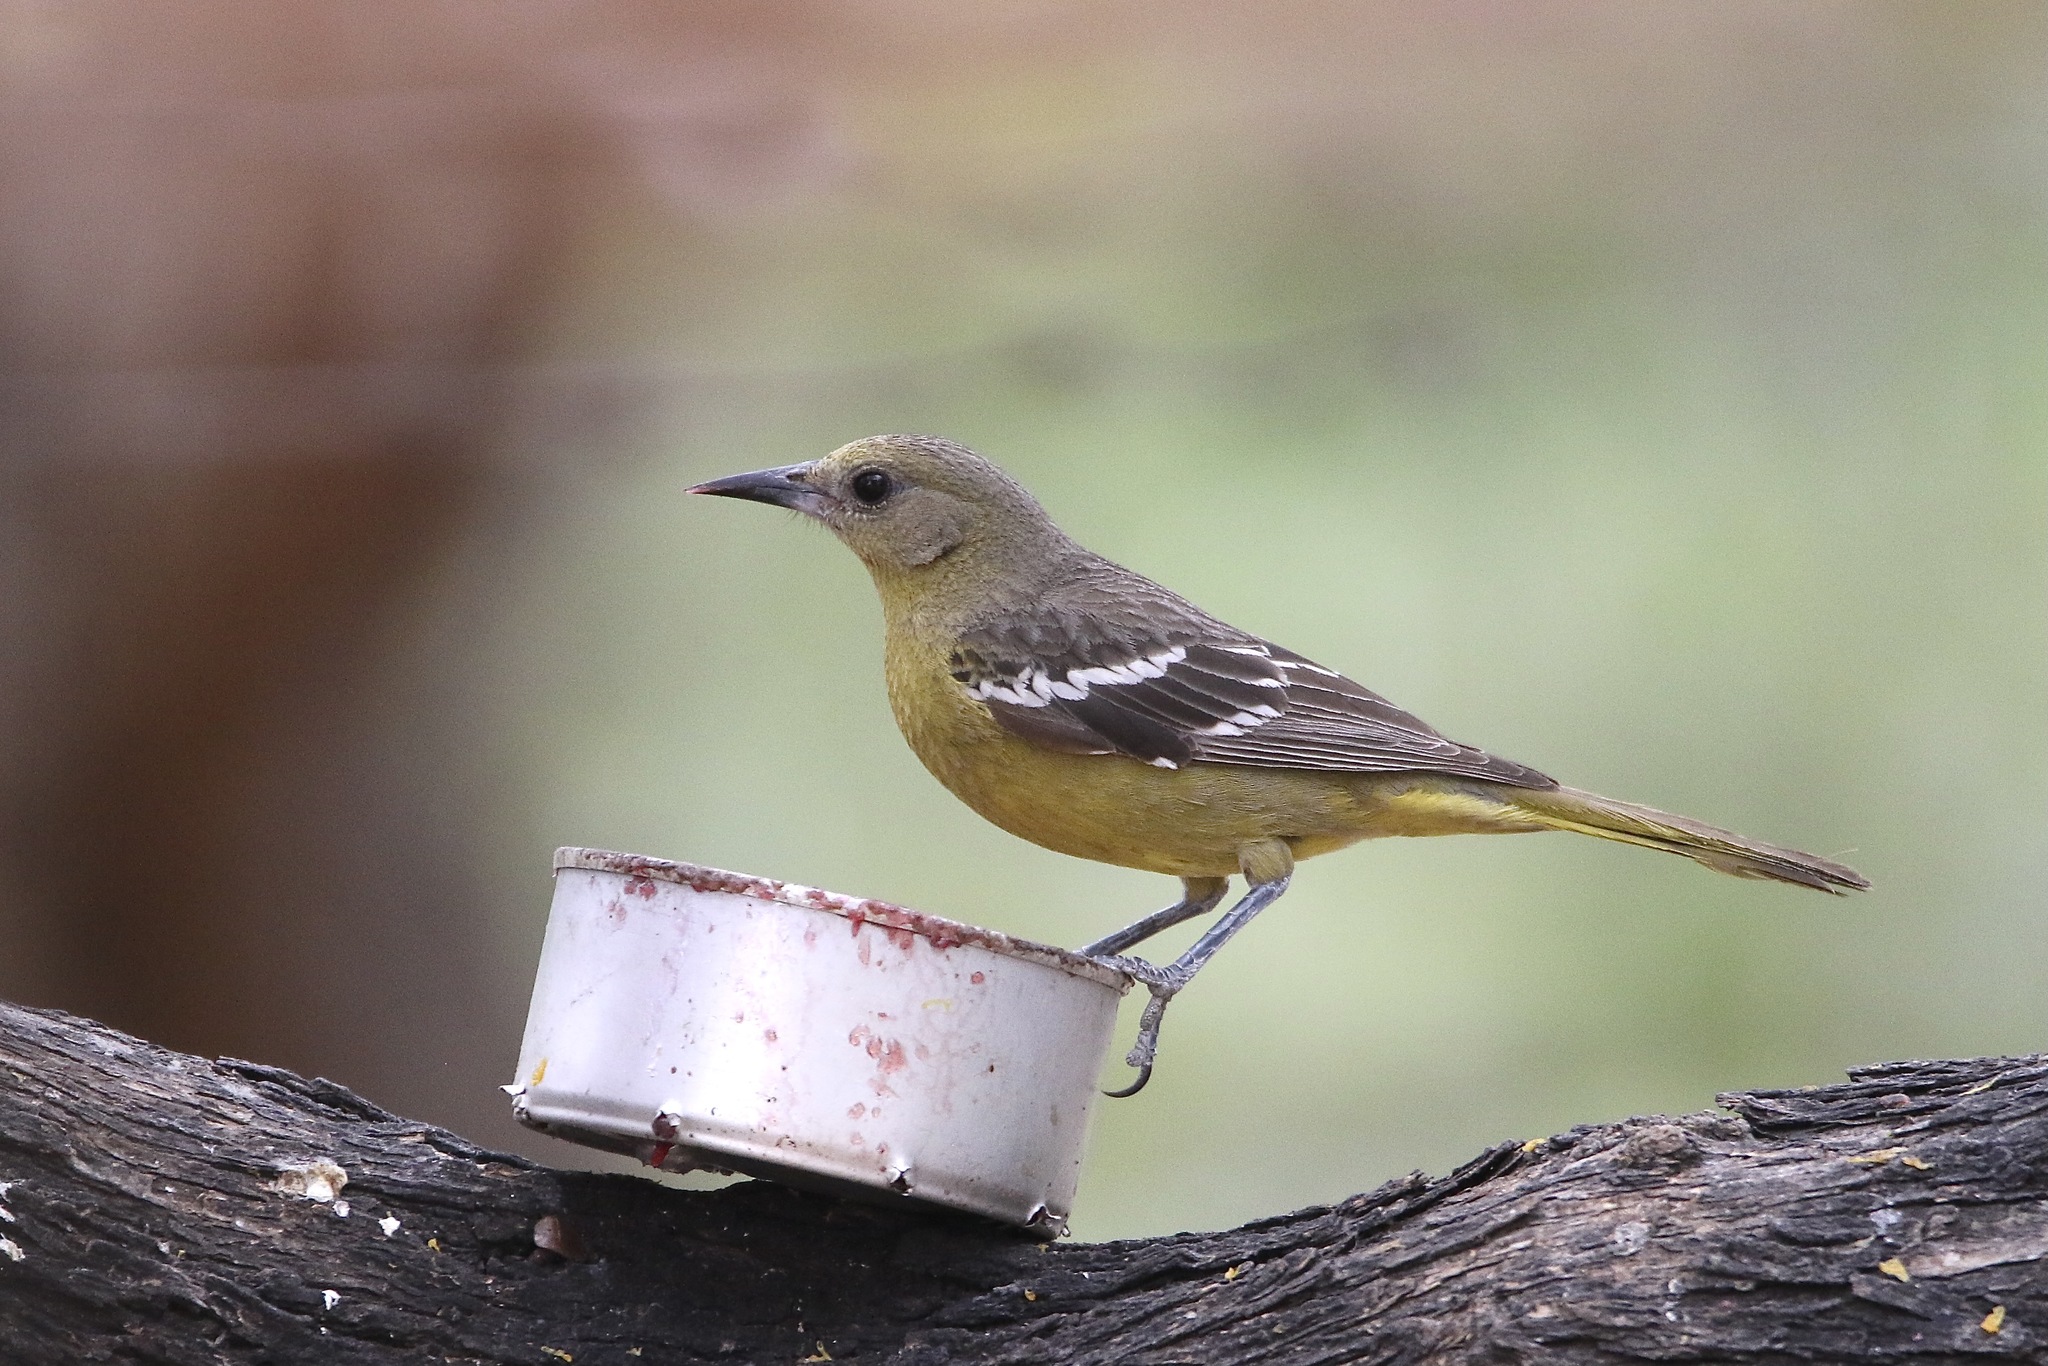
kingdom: Animalia
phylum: Chordata
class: Aves
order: Passeriformes
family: Icteridae
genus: Icterus
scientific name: Icterus parisorum
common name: Scott's oriole
